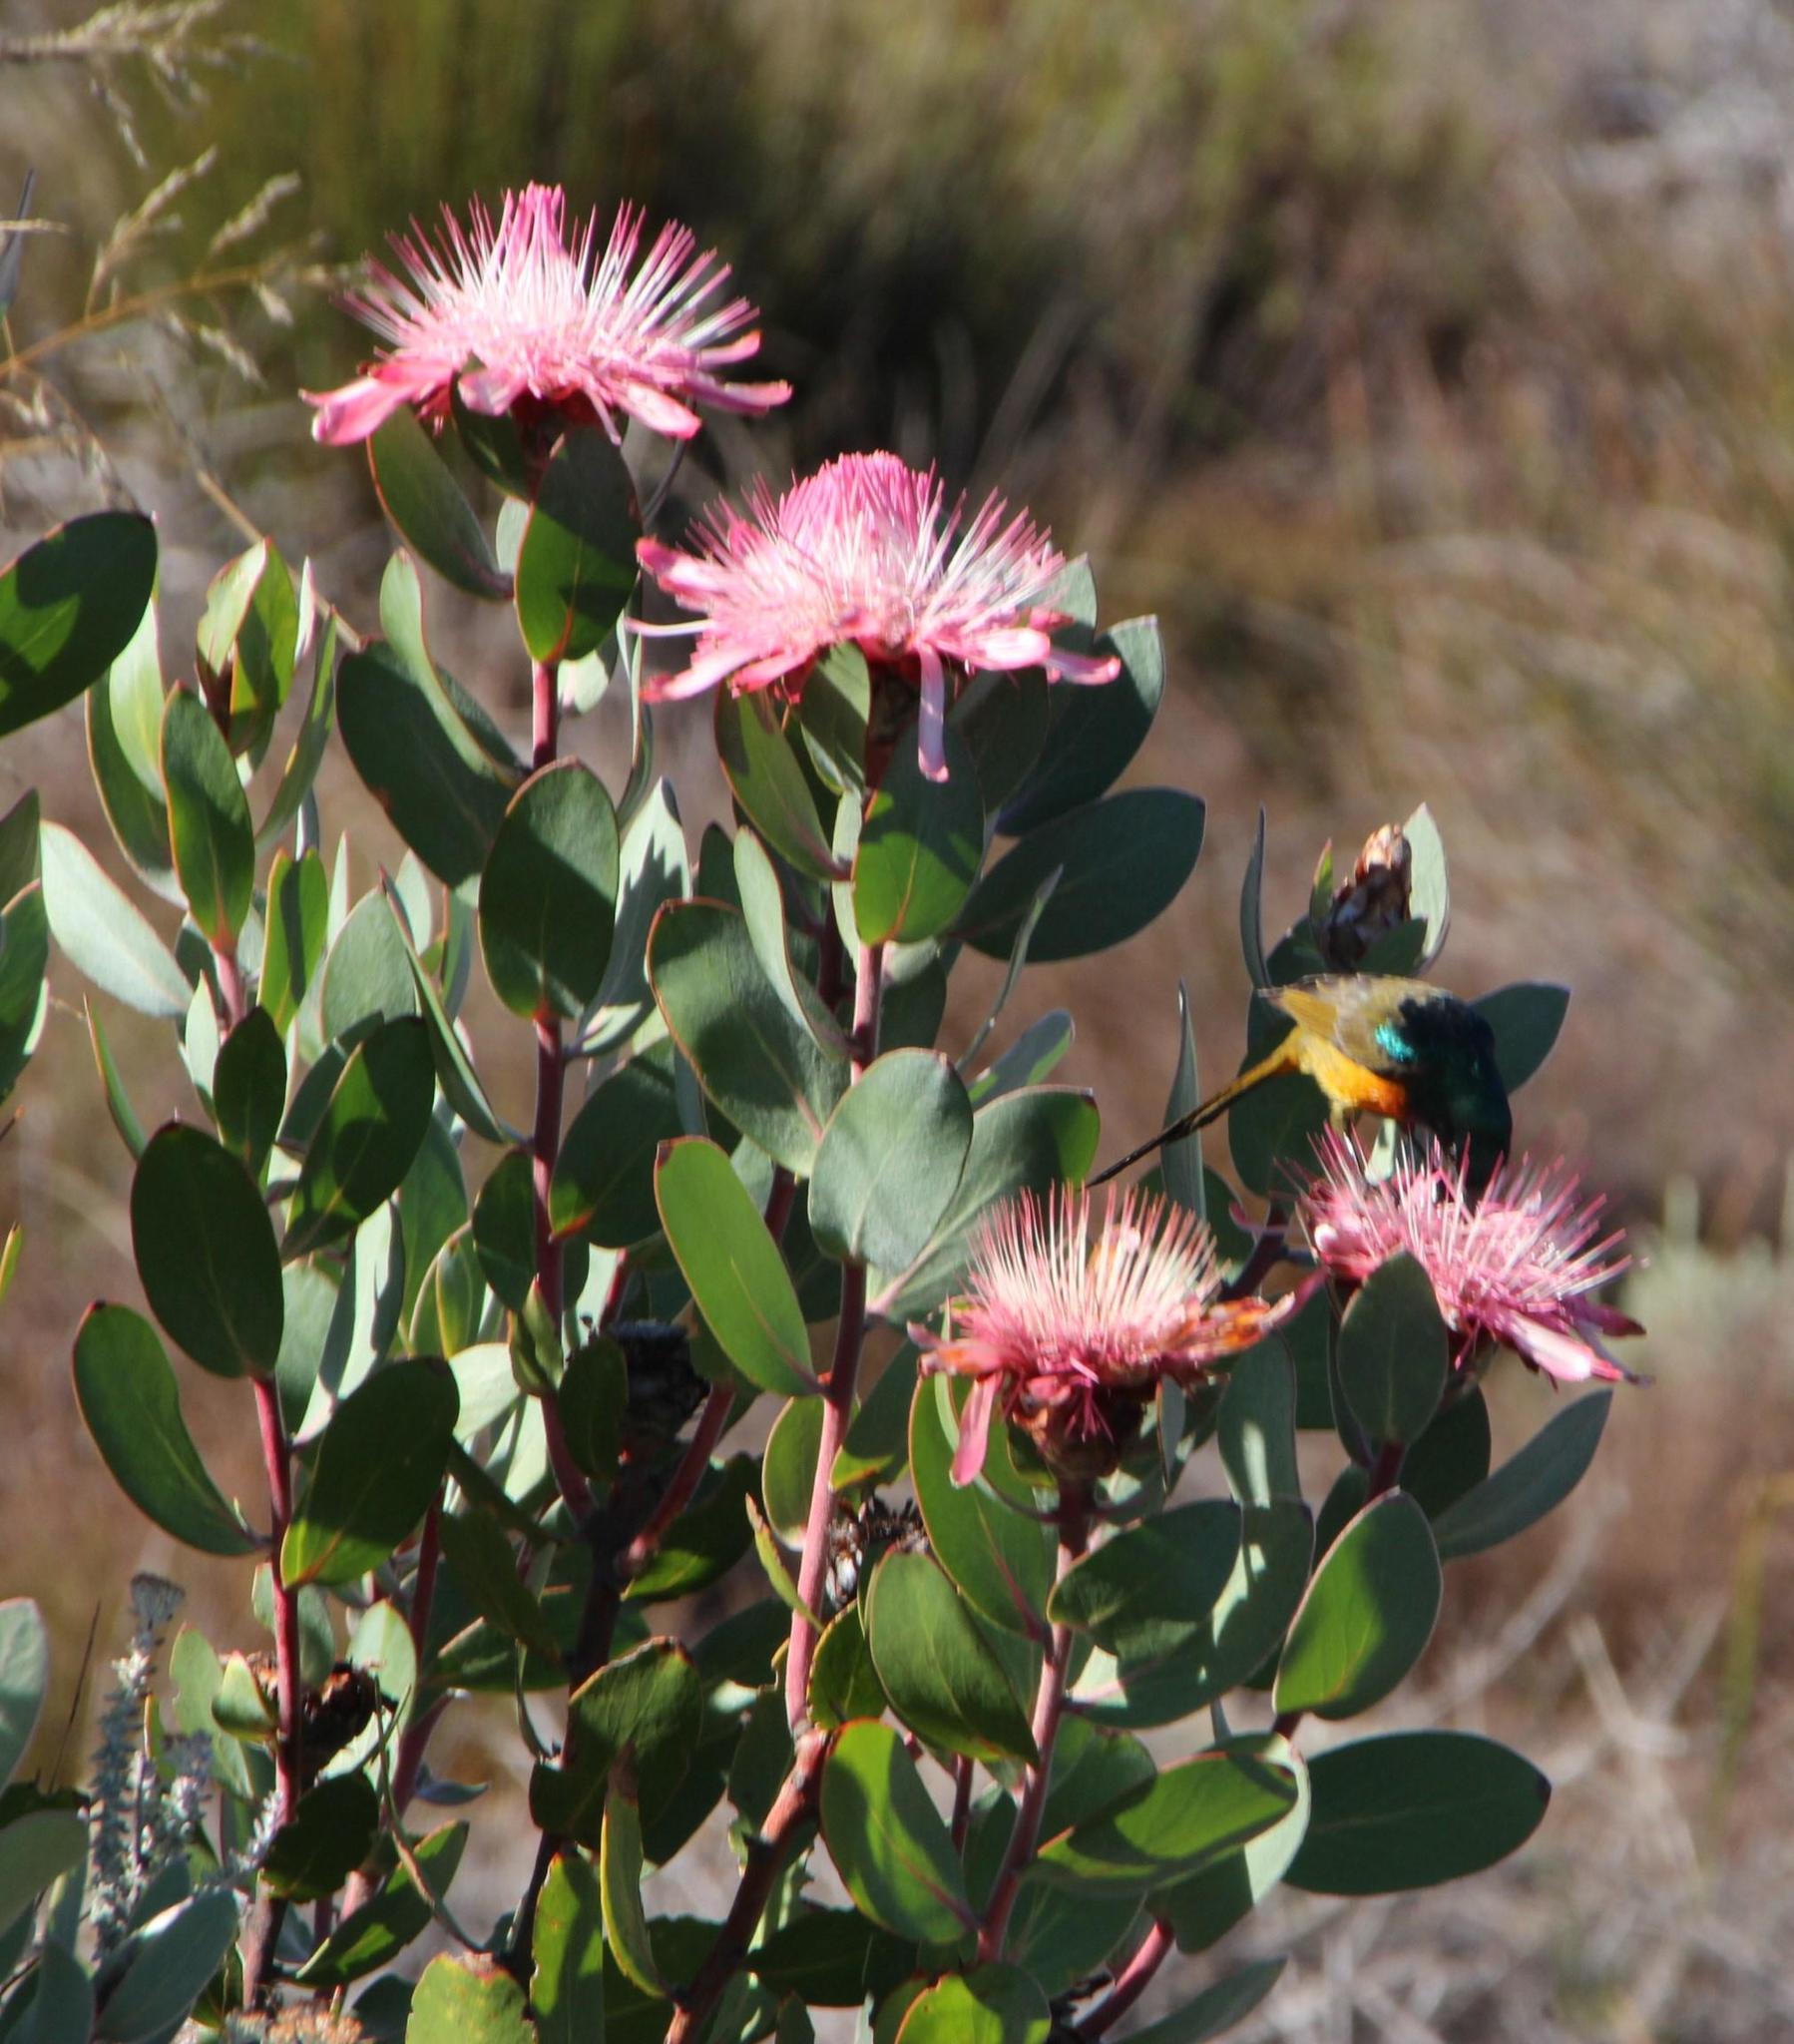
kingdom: Animalia
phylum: Chordata
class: Aves
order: Passeriformes
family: Nectariniidae
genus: Anthobaphes
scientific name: Anthobaphes violacea
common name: Orange-breasted sunbird
